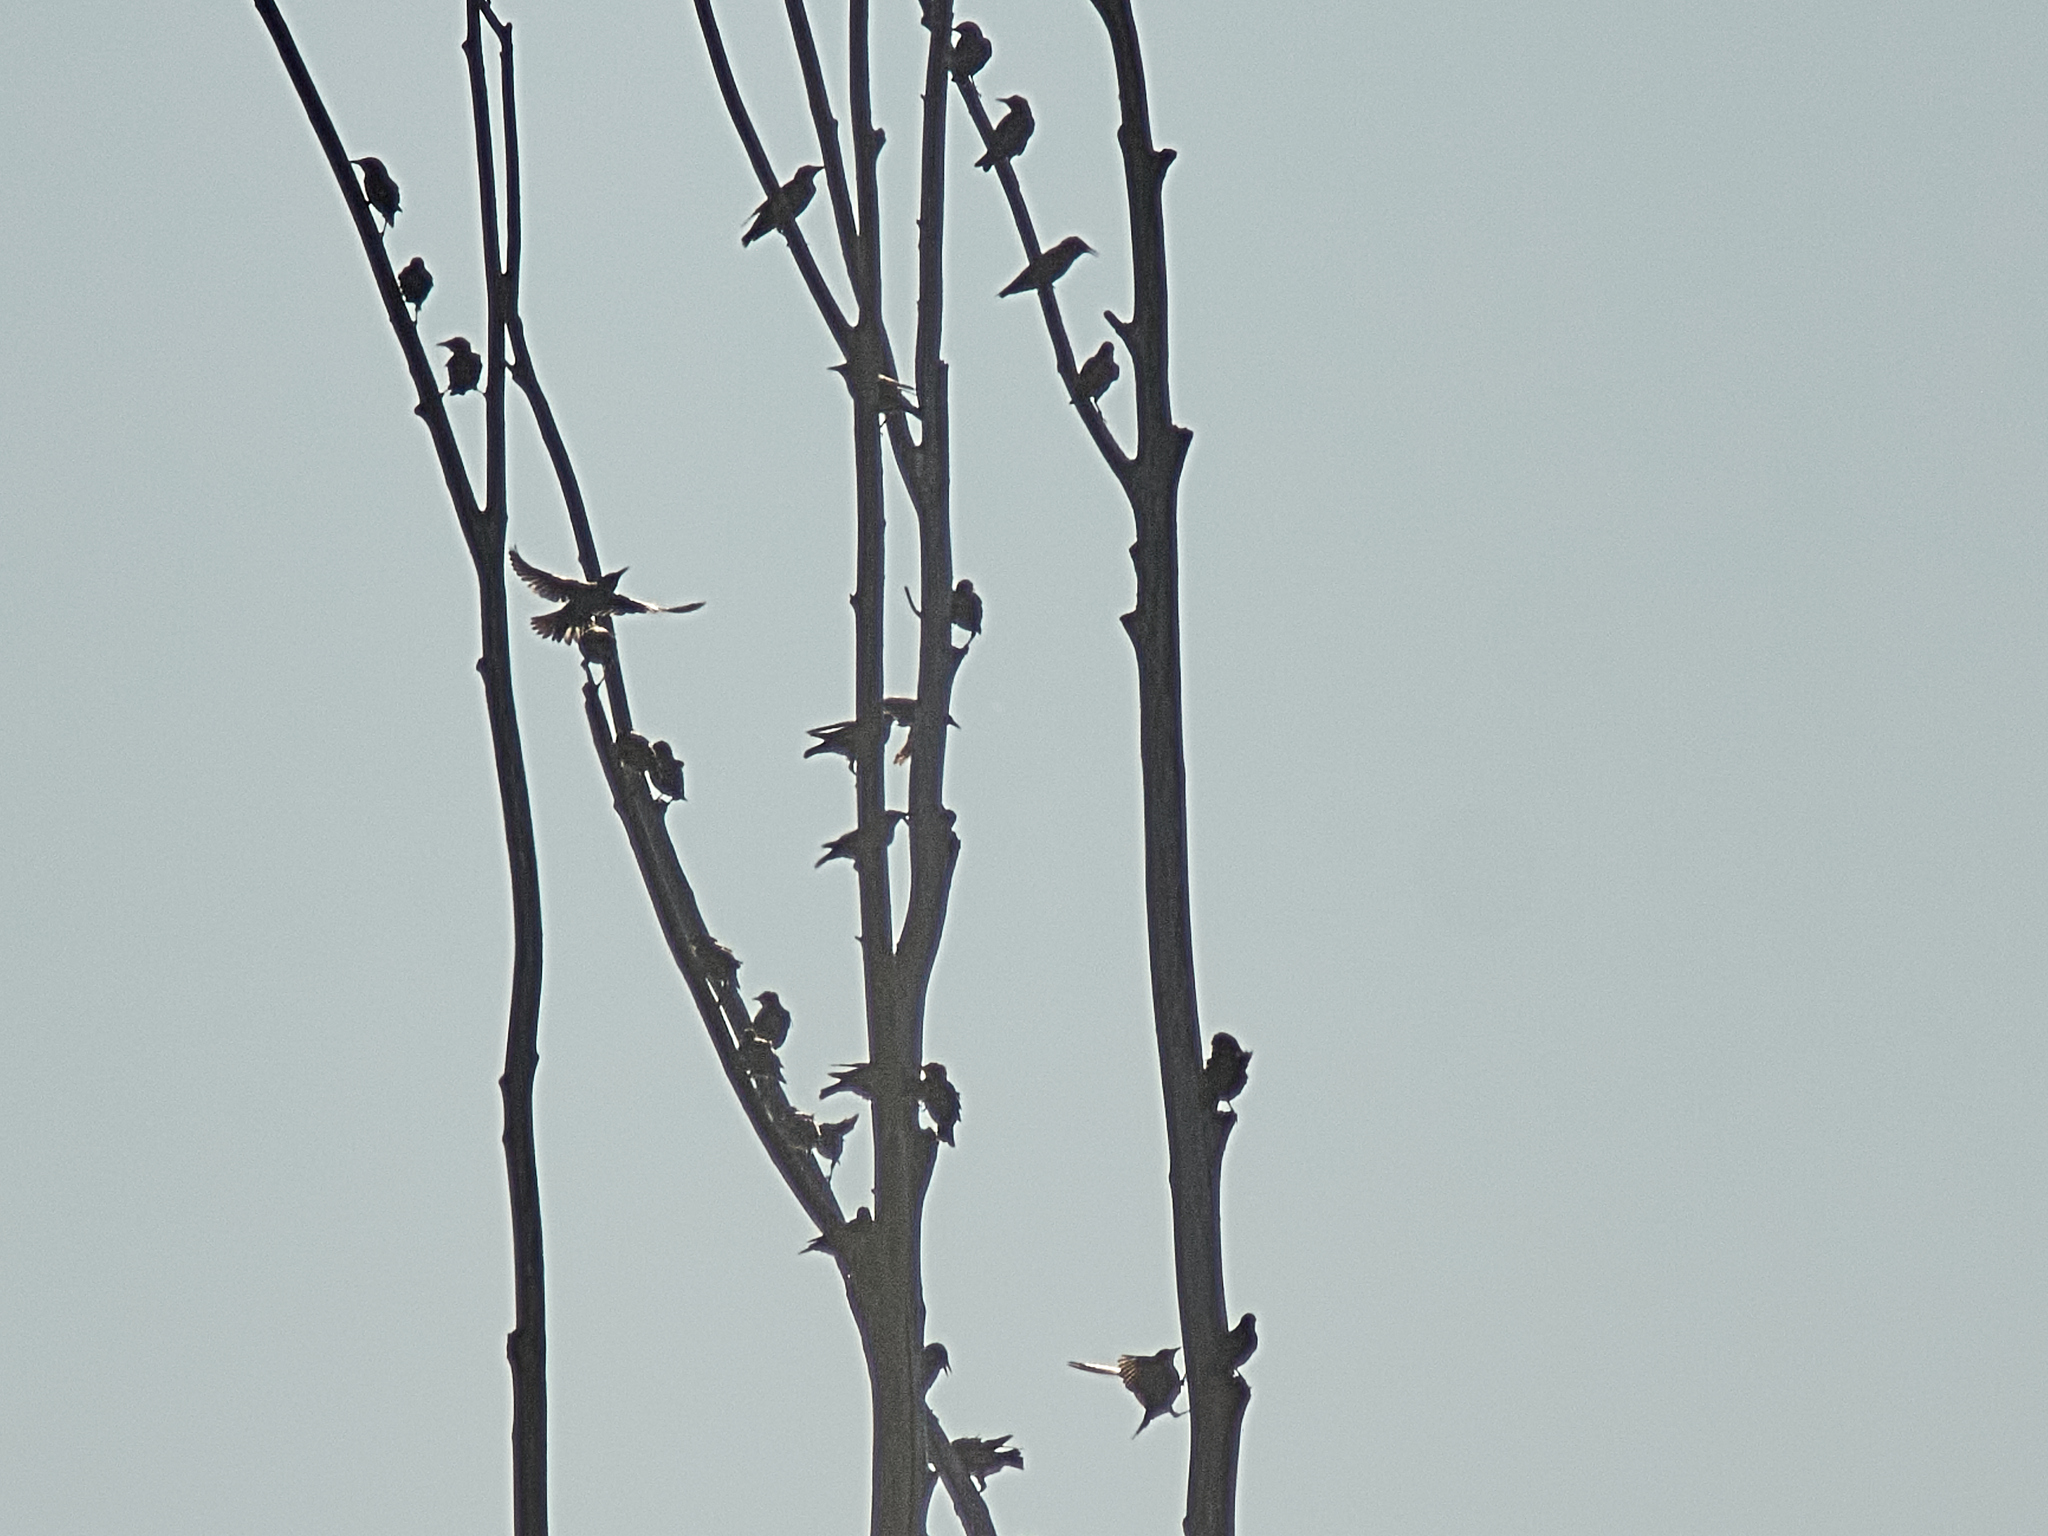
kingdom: Animalia
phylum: Chordata
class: Aves
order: Passeriformes
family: Sturnidae
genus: Sturnus
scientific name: Sturnus vulgaris
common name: Common starling
